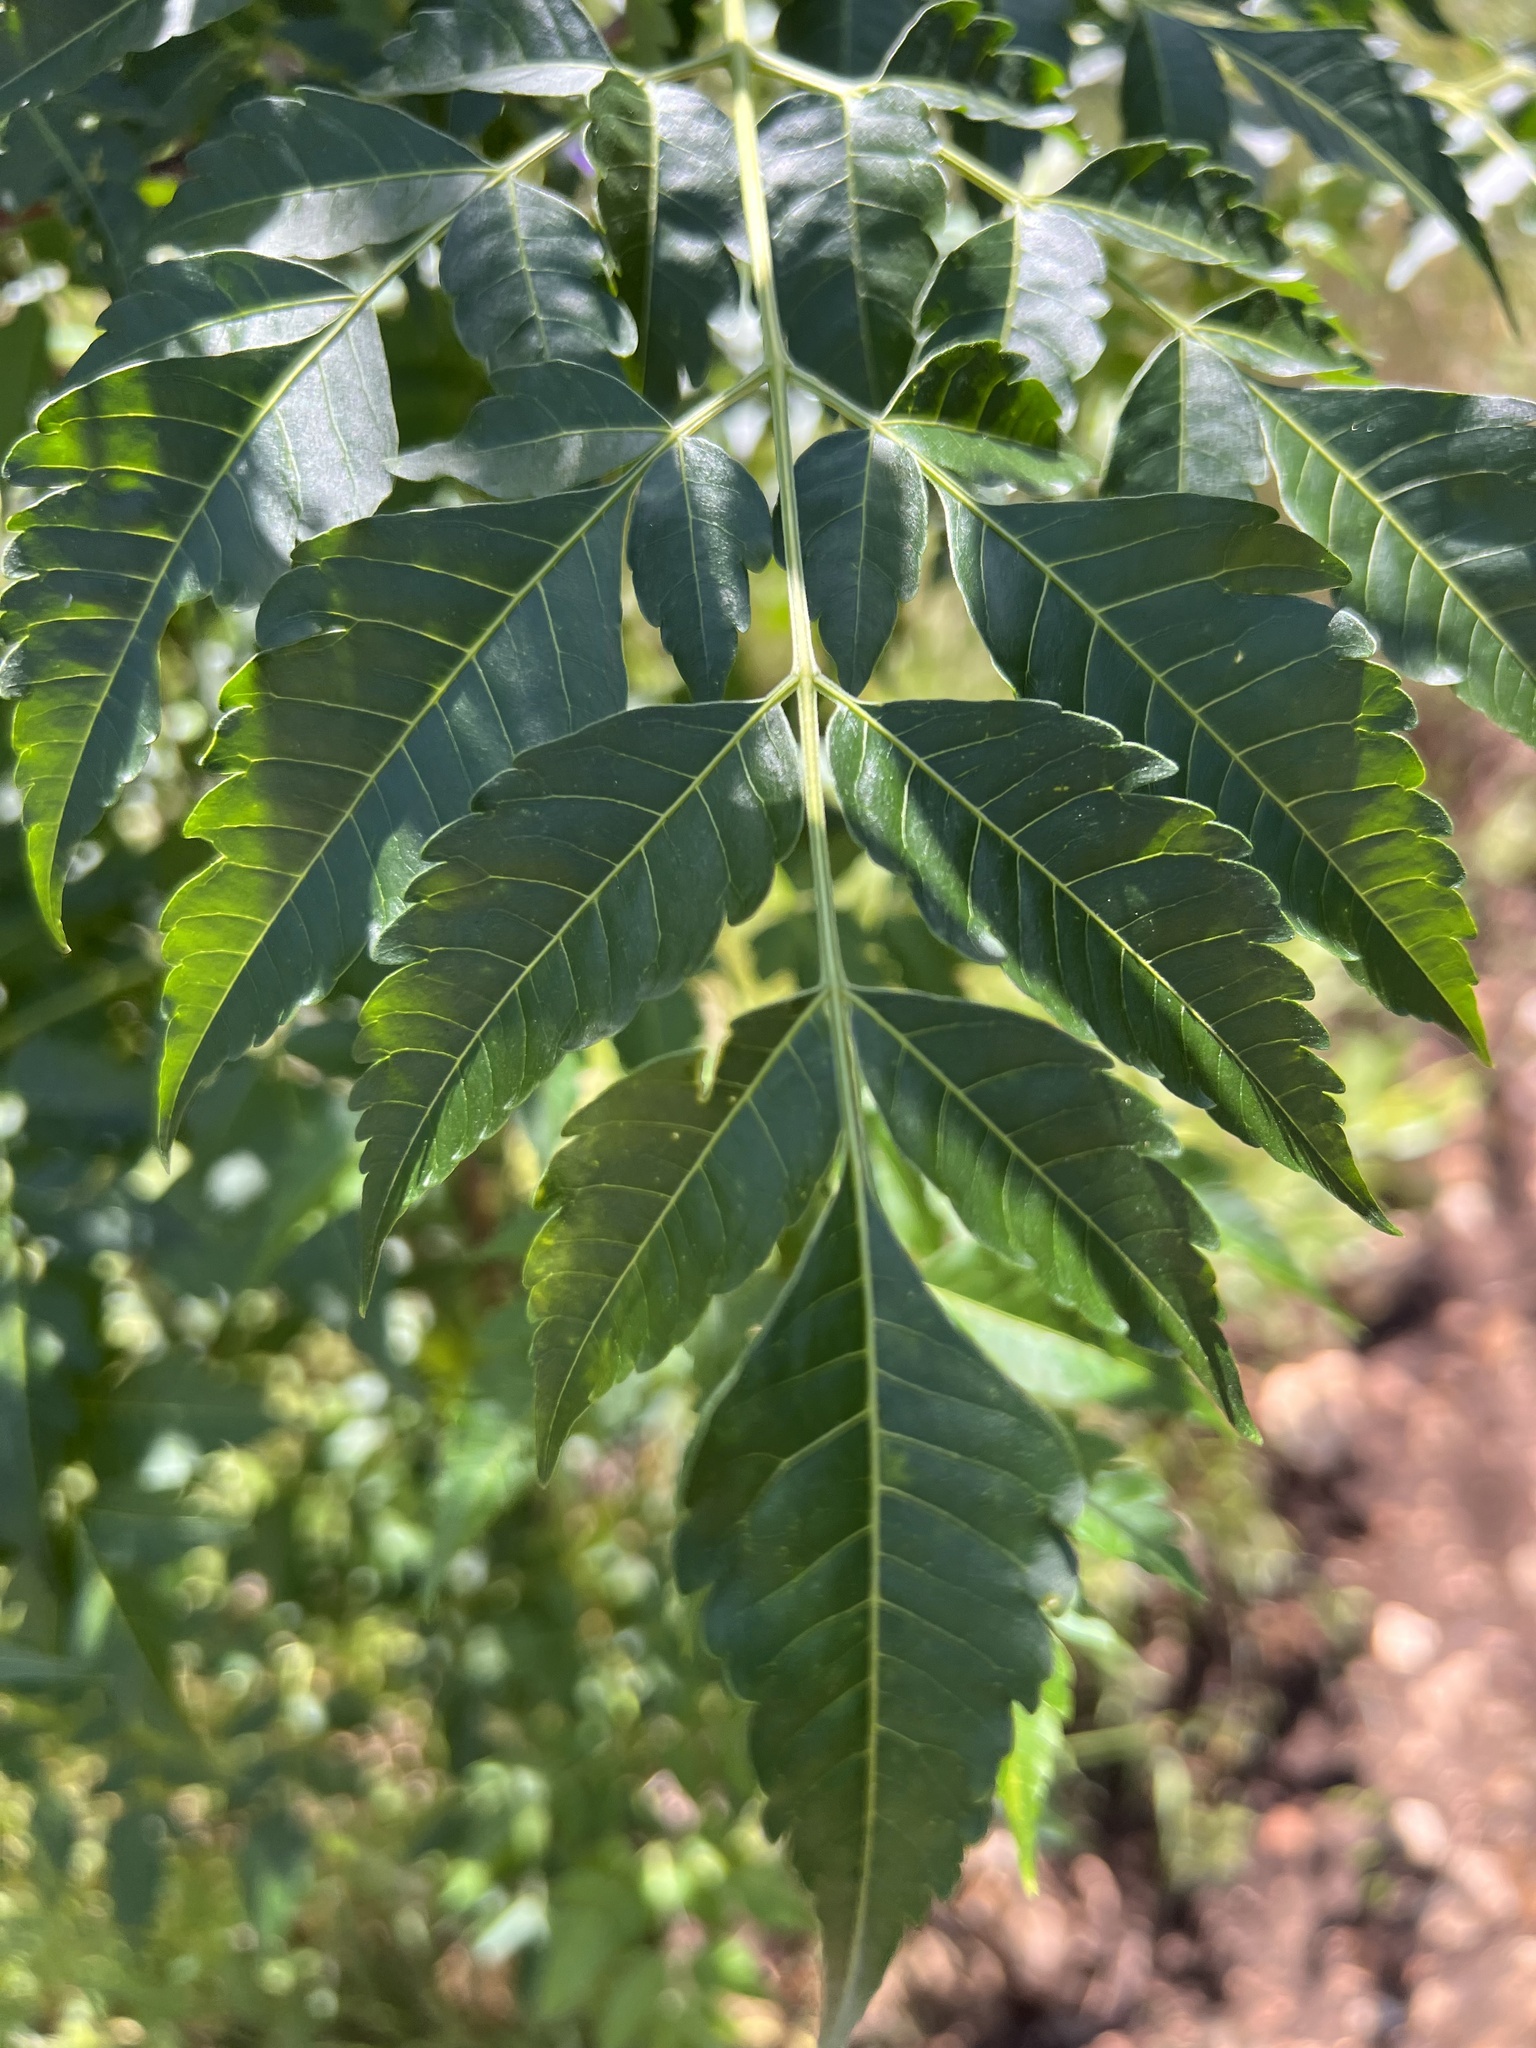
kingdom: Plantae
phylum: Tracheophyta
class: Magnoliopsida
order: Sapindales
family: Meliaceae
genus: Melia
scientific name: Melia azedarach
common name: Chinaberrytree
